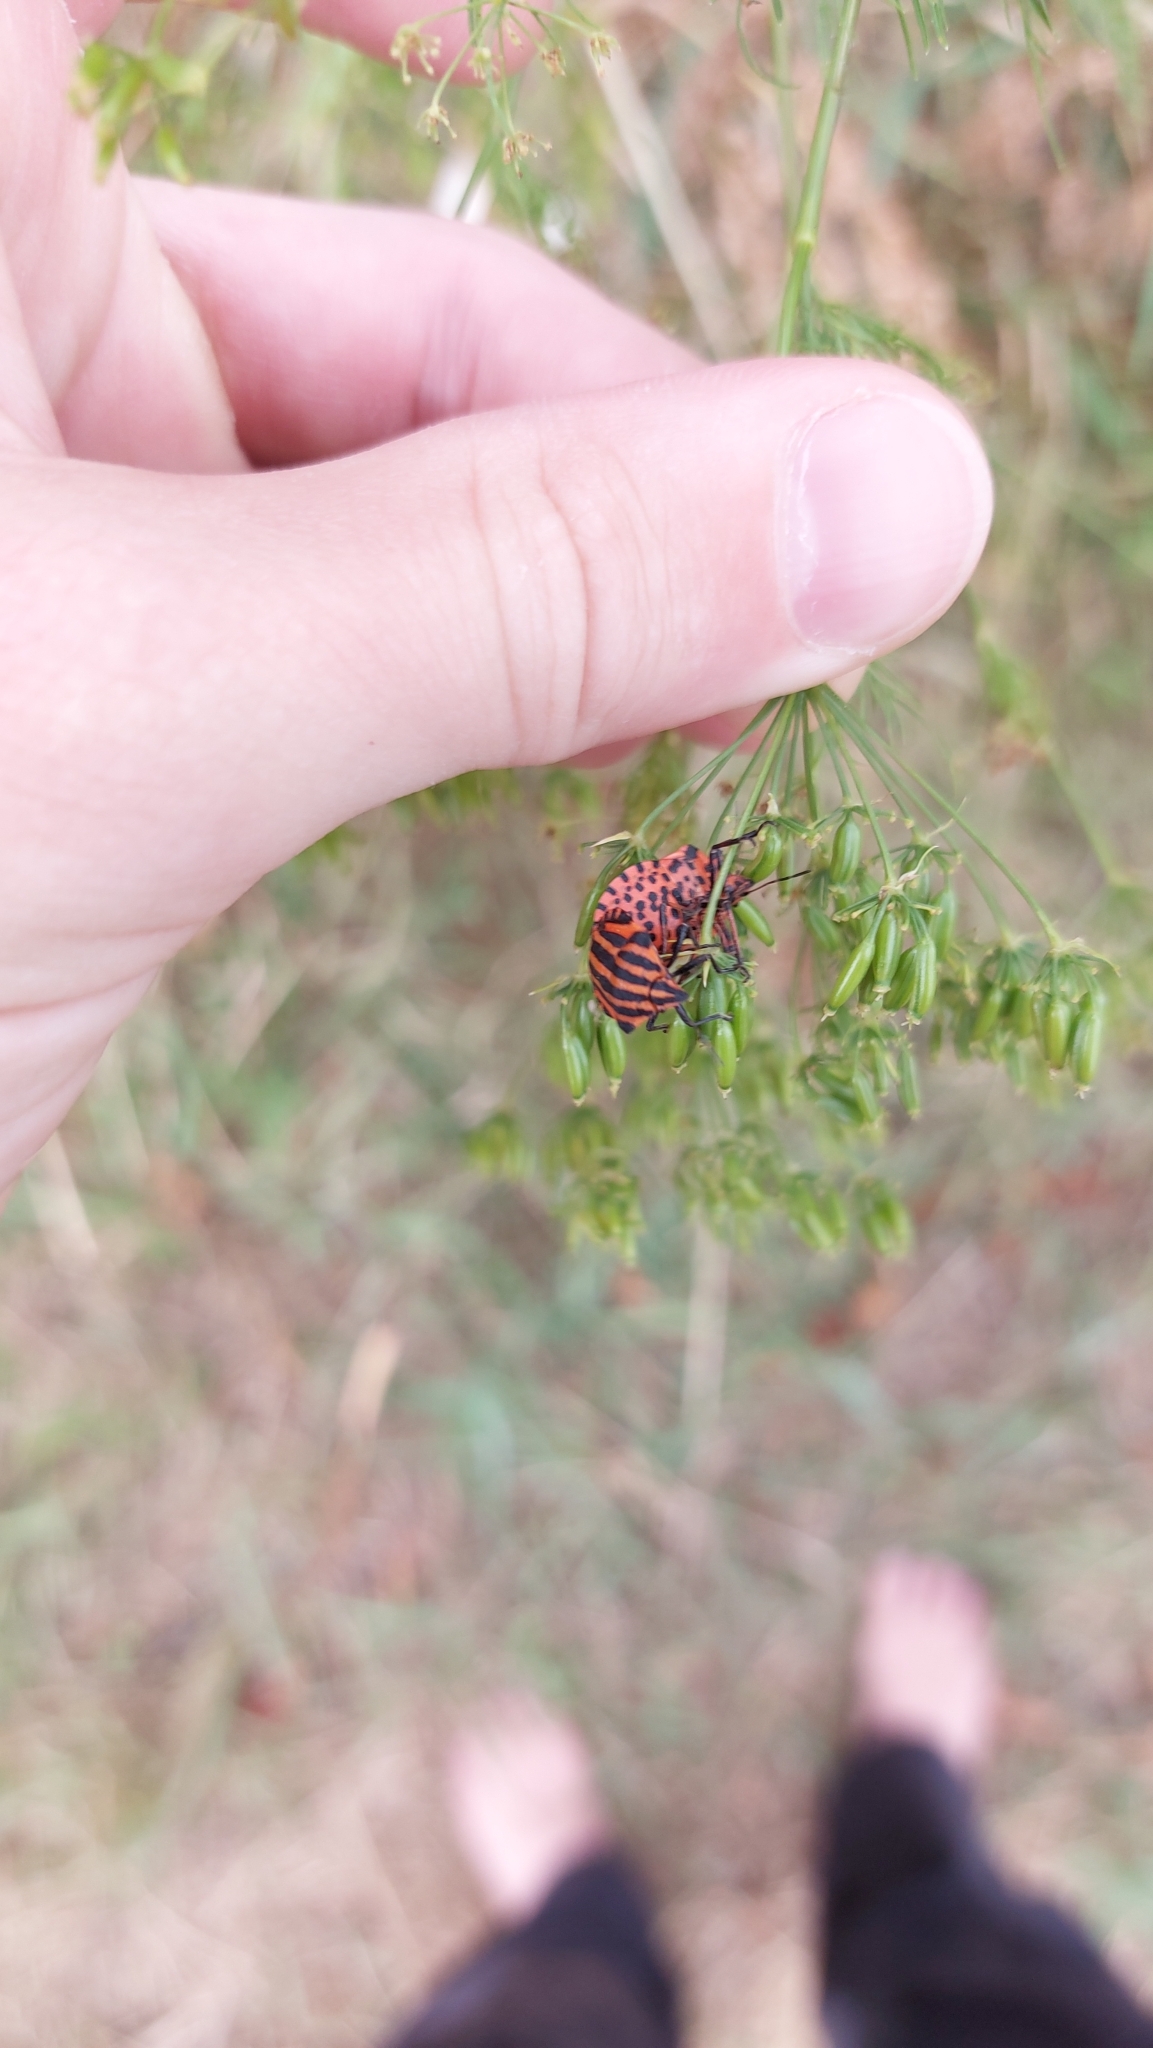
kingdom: Animalia
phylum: Arthropoda
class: Insecta
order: Hemiptera
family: Pentatomidae
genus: Graphosoma
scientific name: Graphosoma italicum
